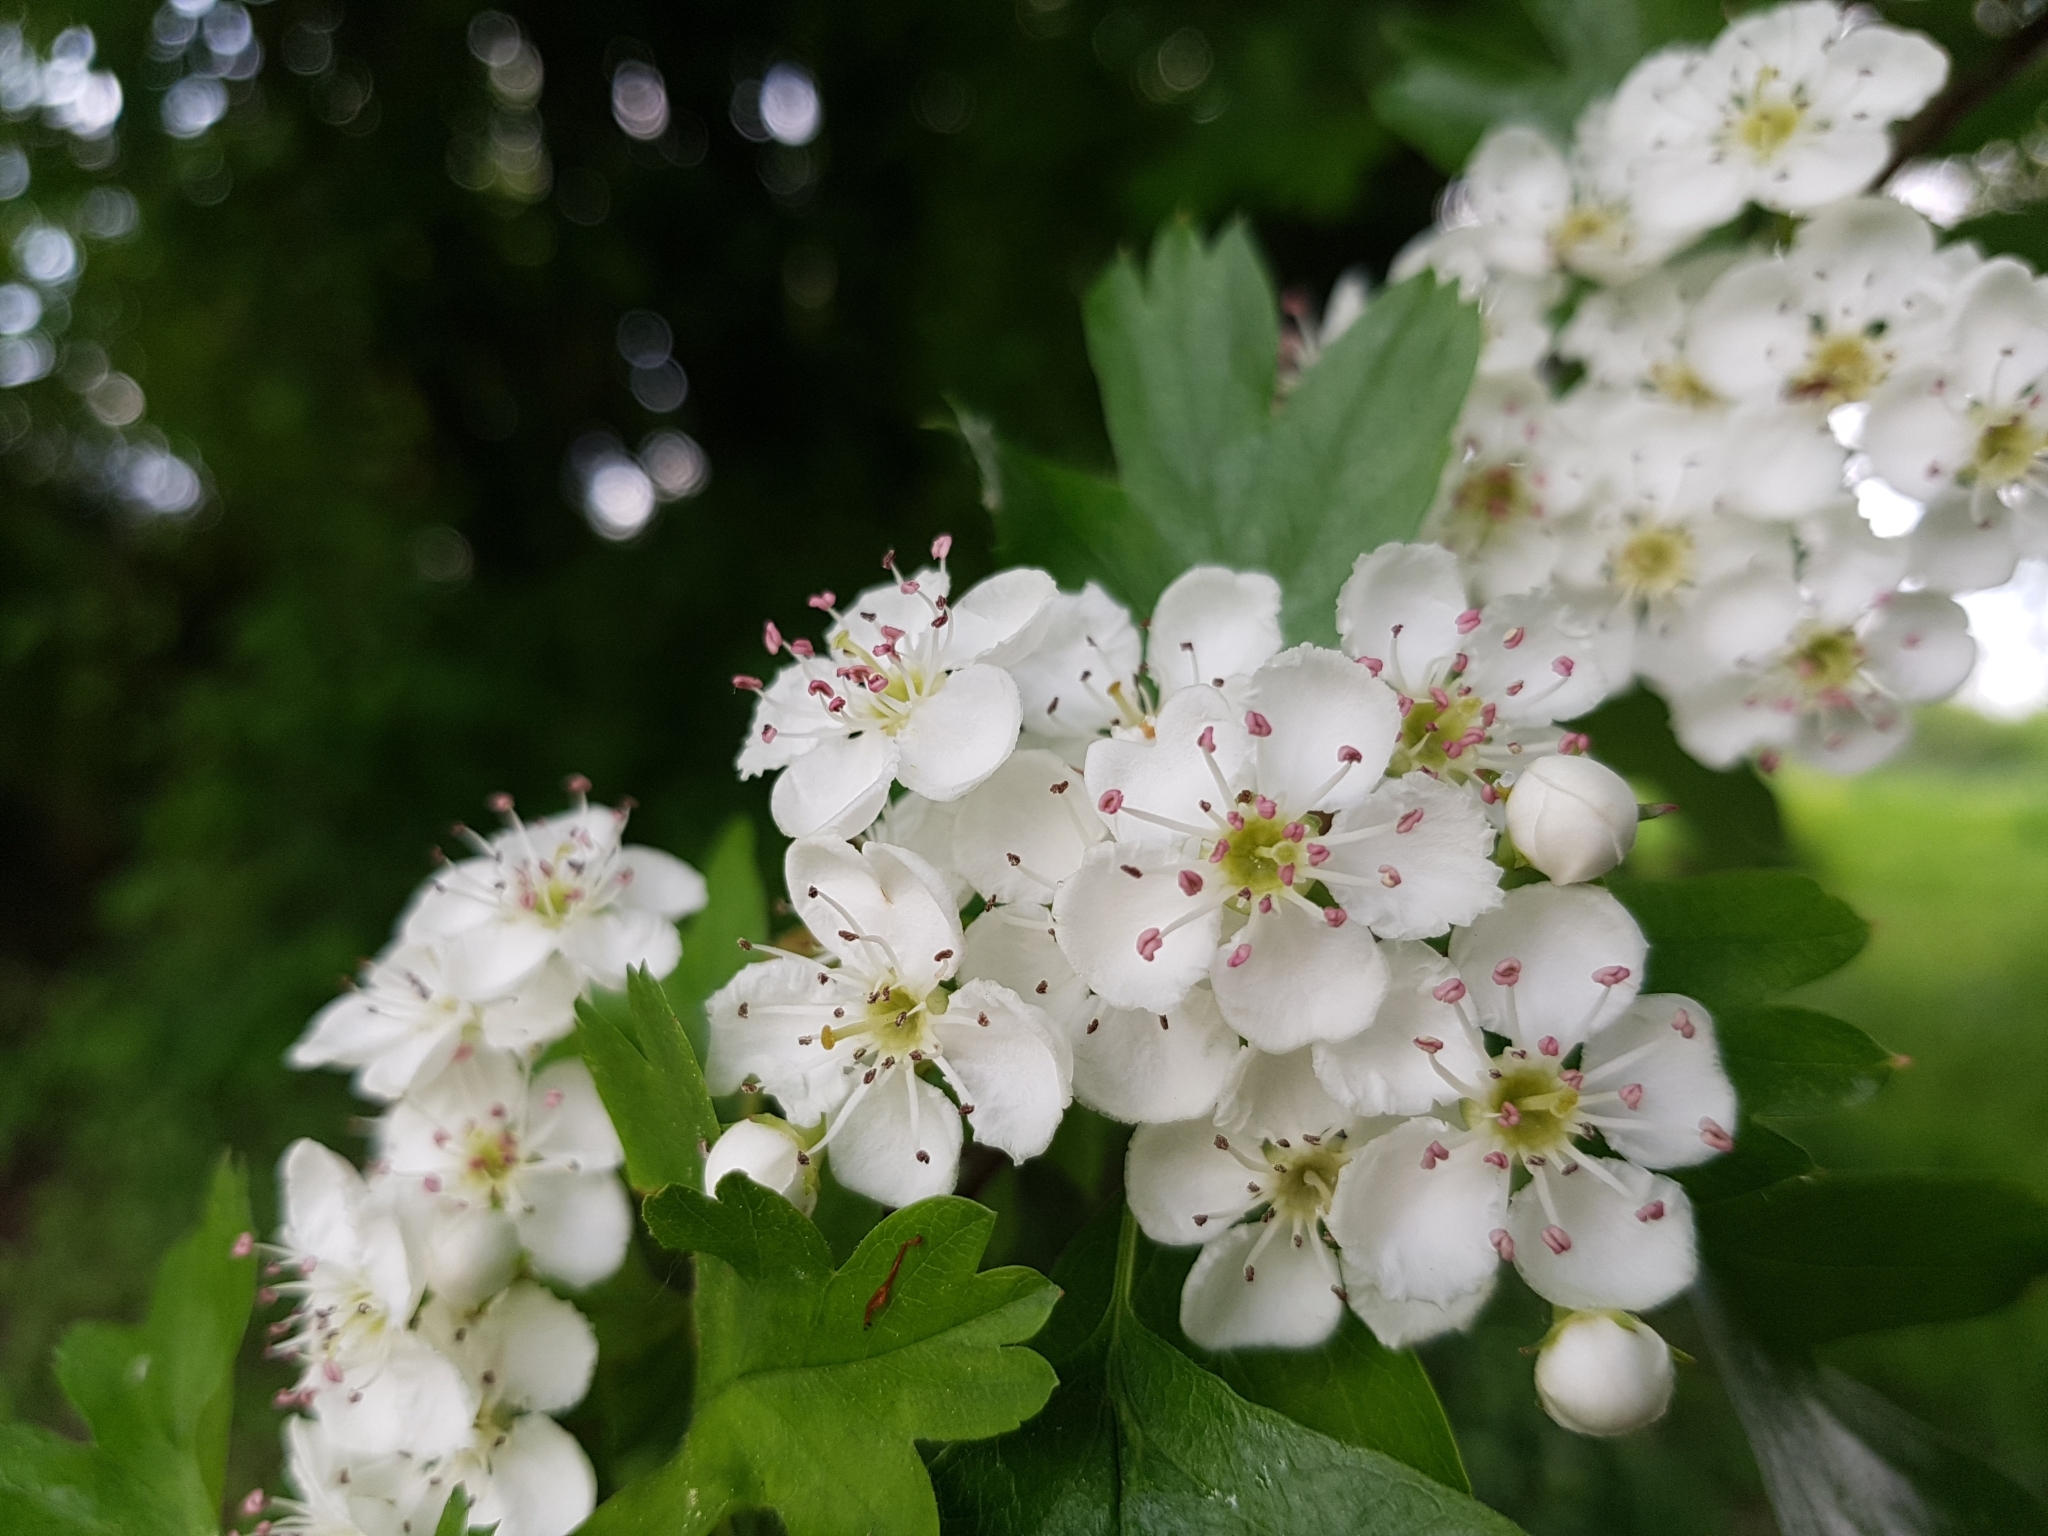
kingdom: Plantae
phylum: Tracheophyta
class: Magnoliopsida
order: Rosales
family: Rosaceae
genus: Crataegus
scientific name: Crataegus monogyna
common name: Hawthorn
